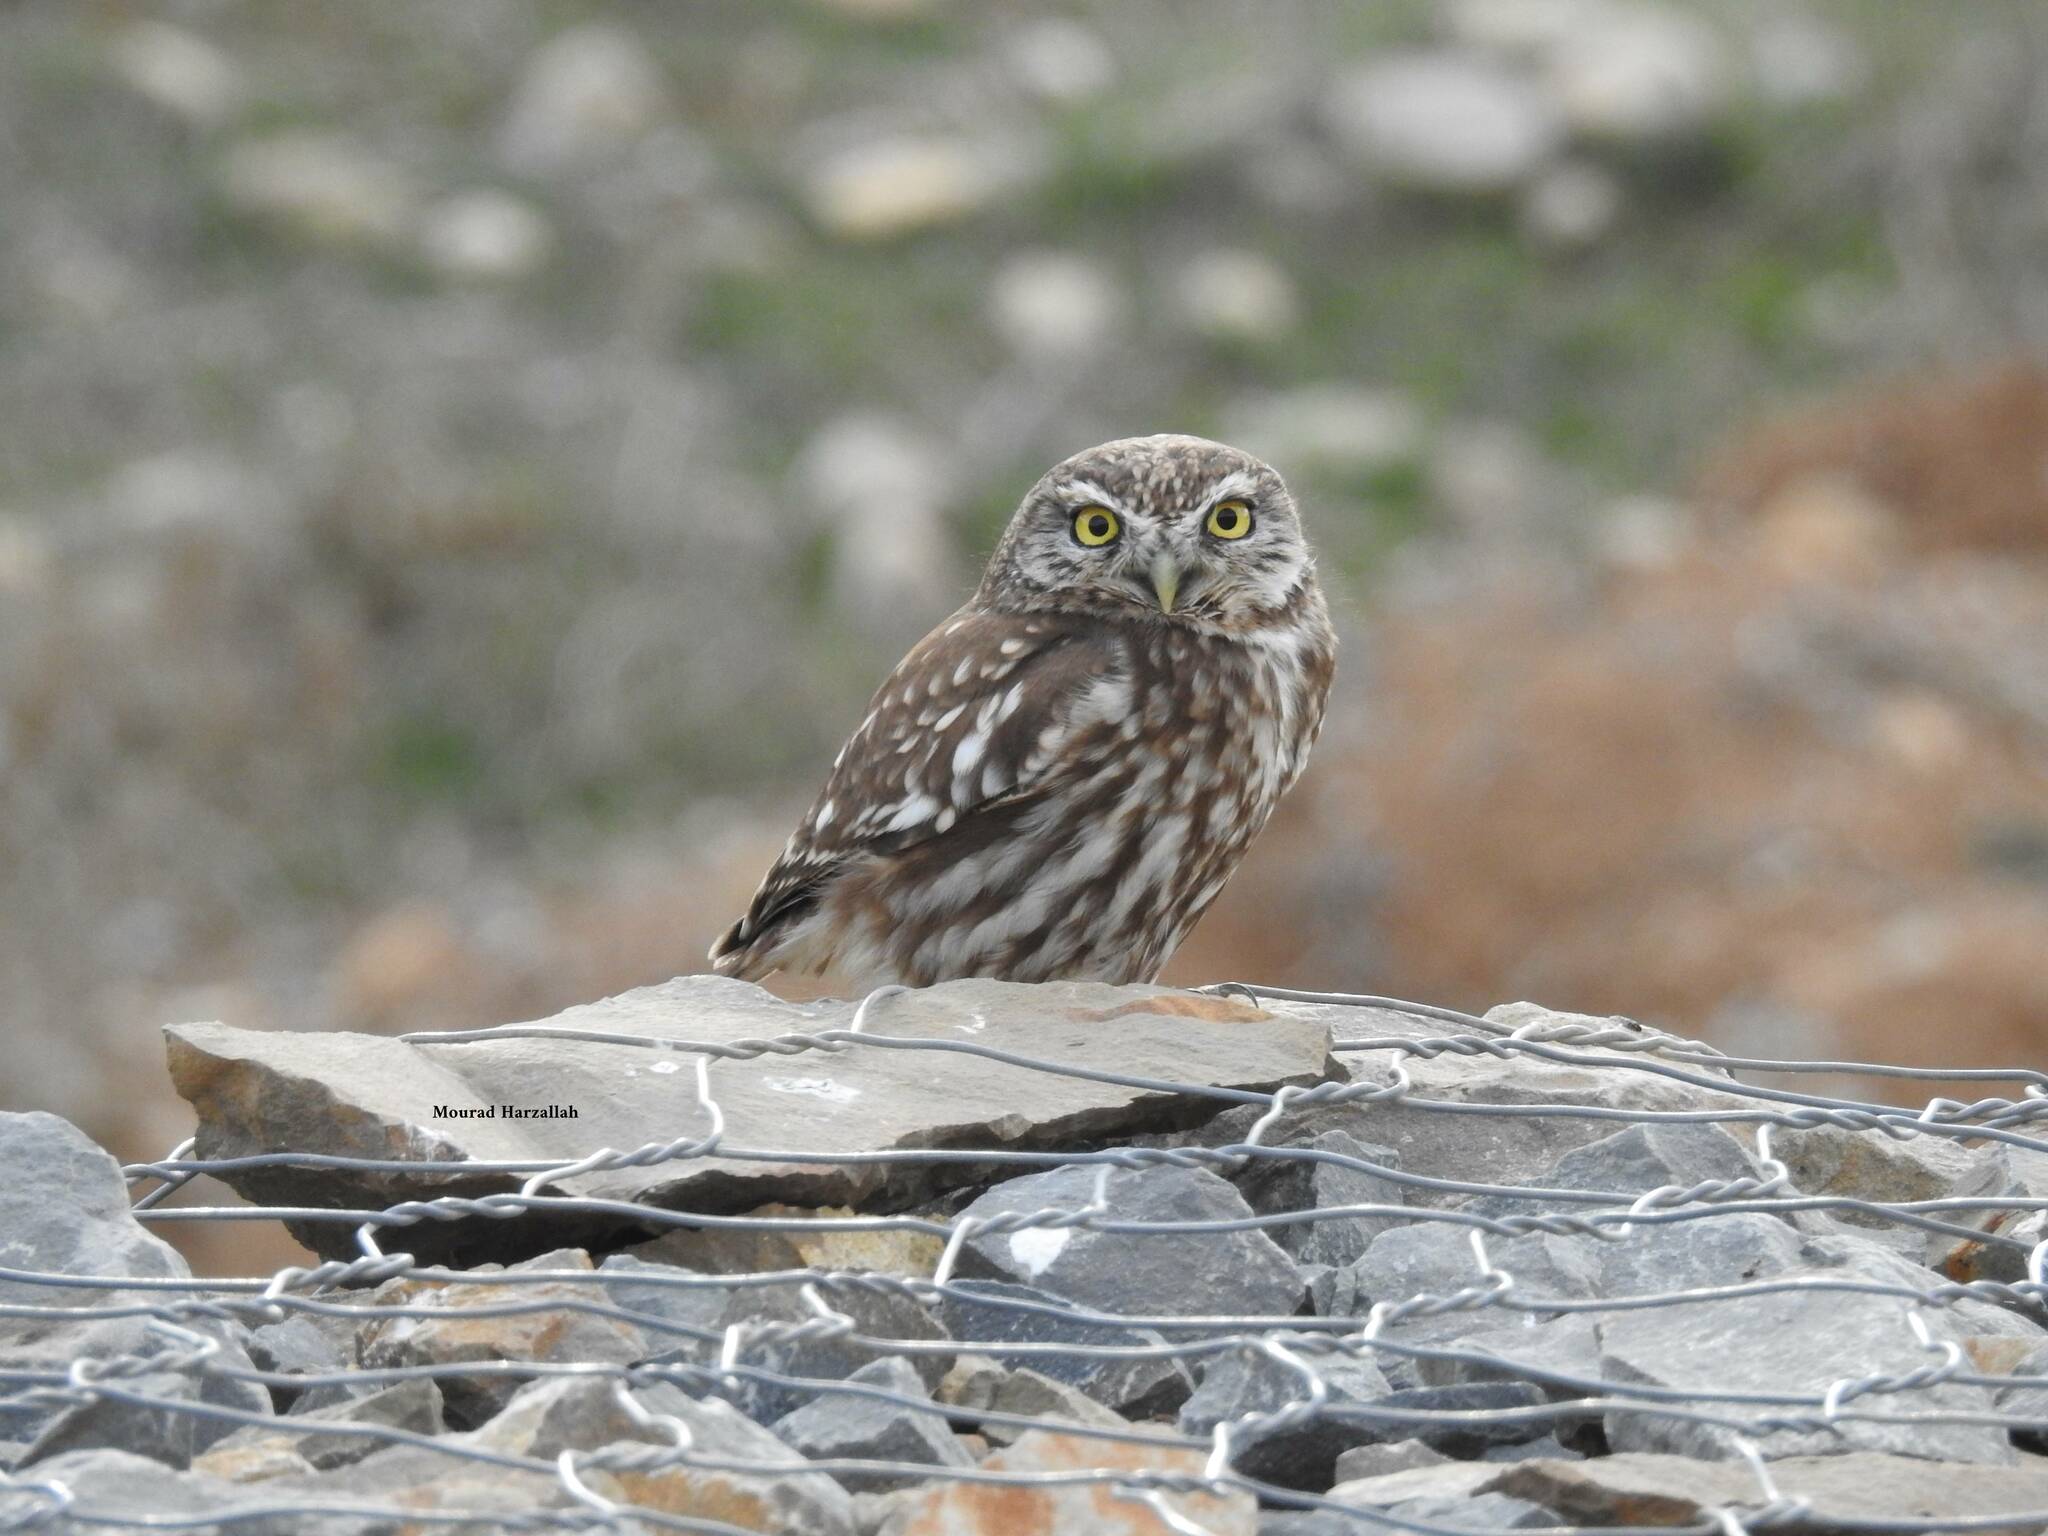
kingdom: Animalia
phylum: Chordata
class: Aves
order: Strigiformes
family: Strigidae
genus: Athene
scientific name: Athene noctua
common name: Little owl
